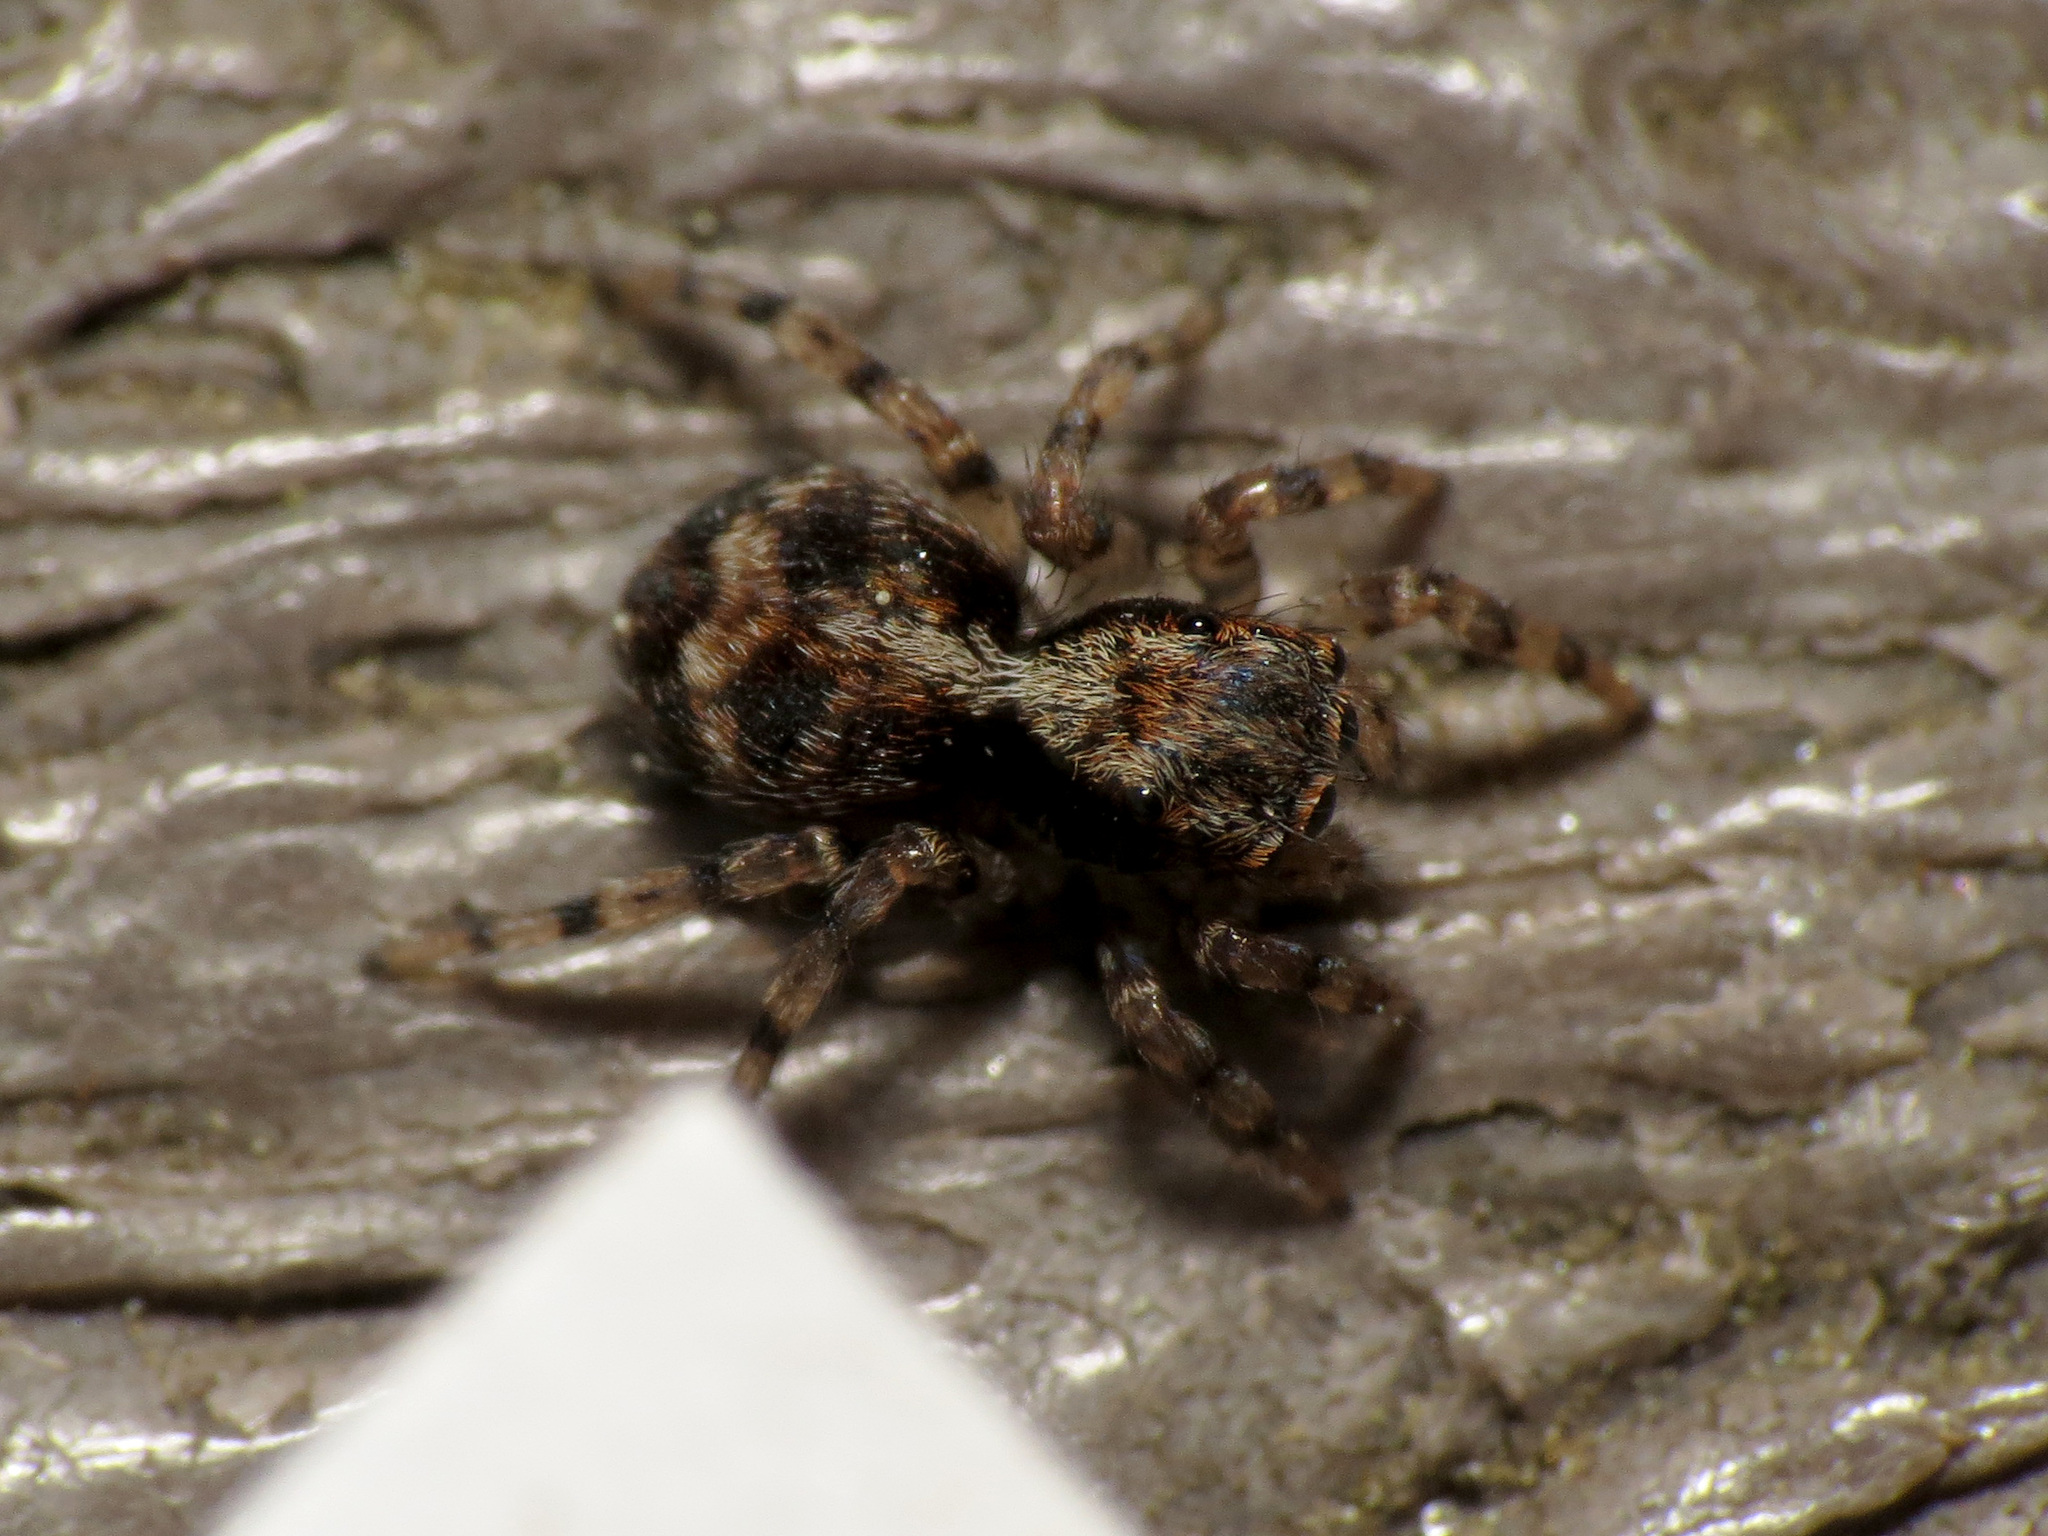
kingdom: Animalia
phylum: Arthropoda
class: Arachnida
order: Araneae
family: Salticidae
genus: Naphrys
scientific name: Naphrys pulex
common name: Flea jumping spider
